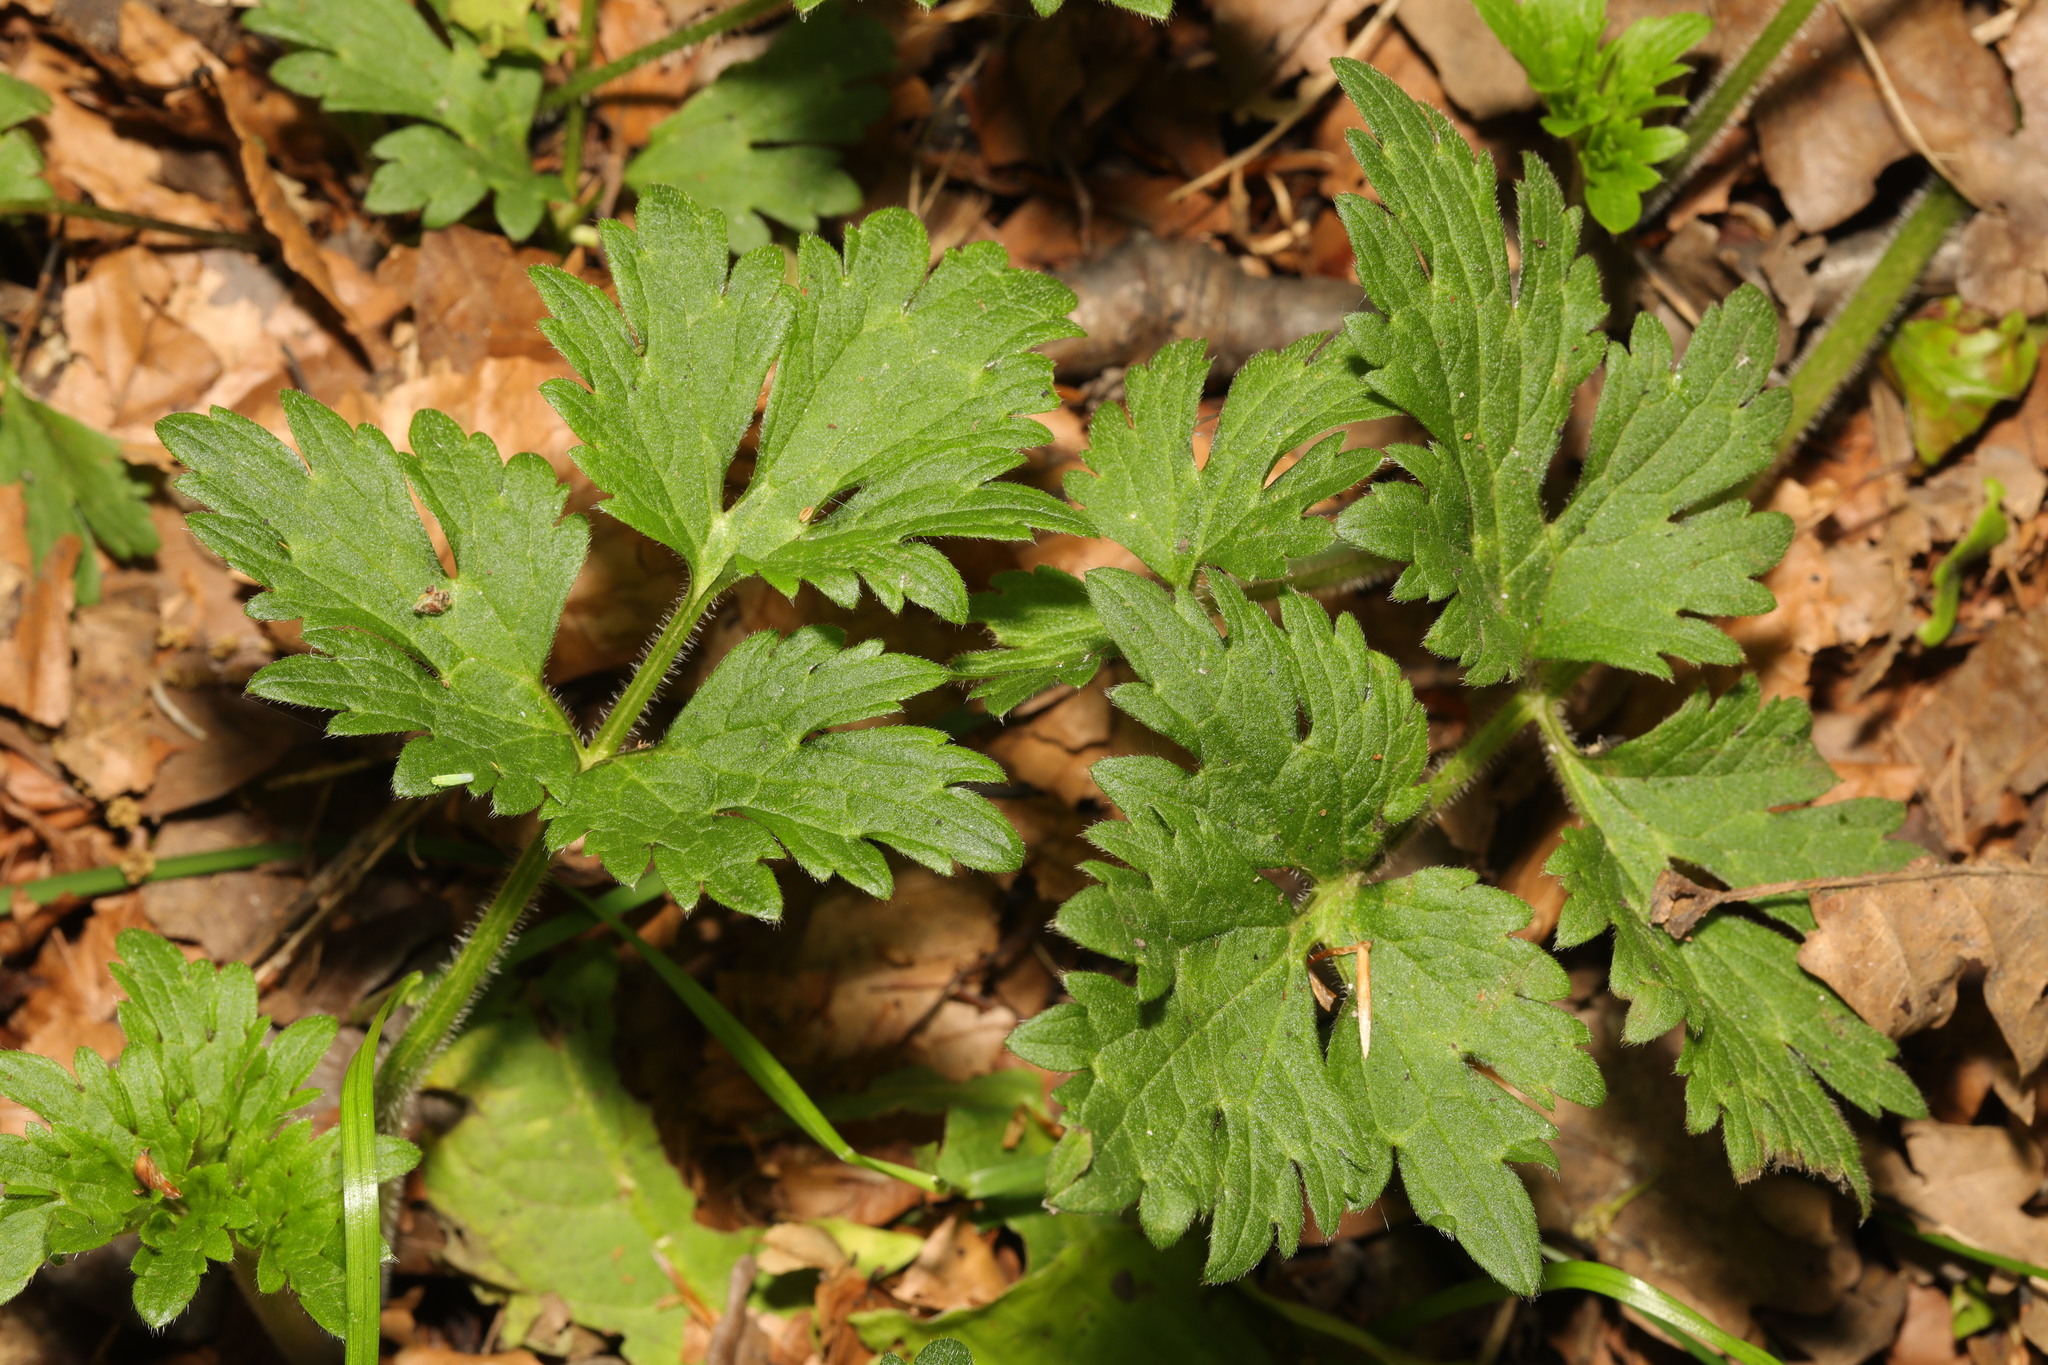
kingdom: Plantae
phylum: Tracheophyta
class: Magnoliopsida
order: Ranunculales
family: Ranunculaceae
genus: Ranunculus
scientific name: Ranunculus repens
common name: Creeping buttercup
